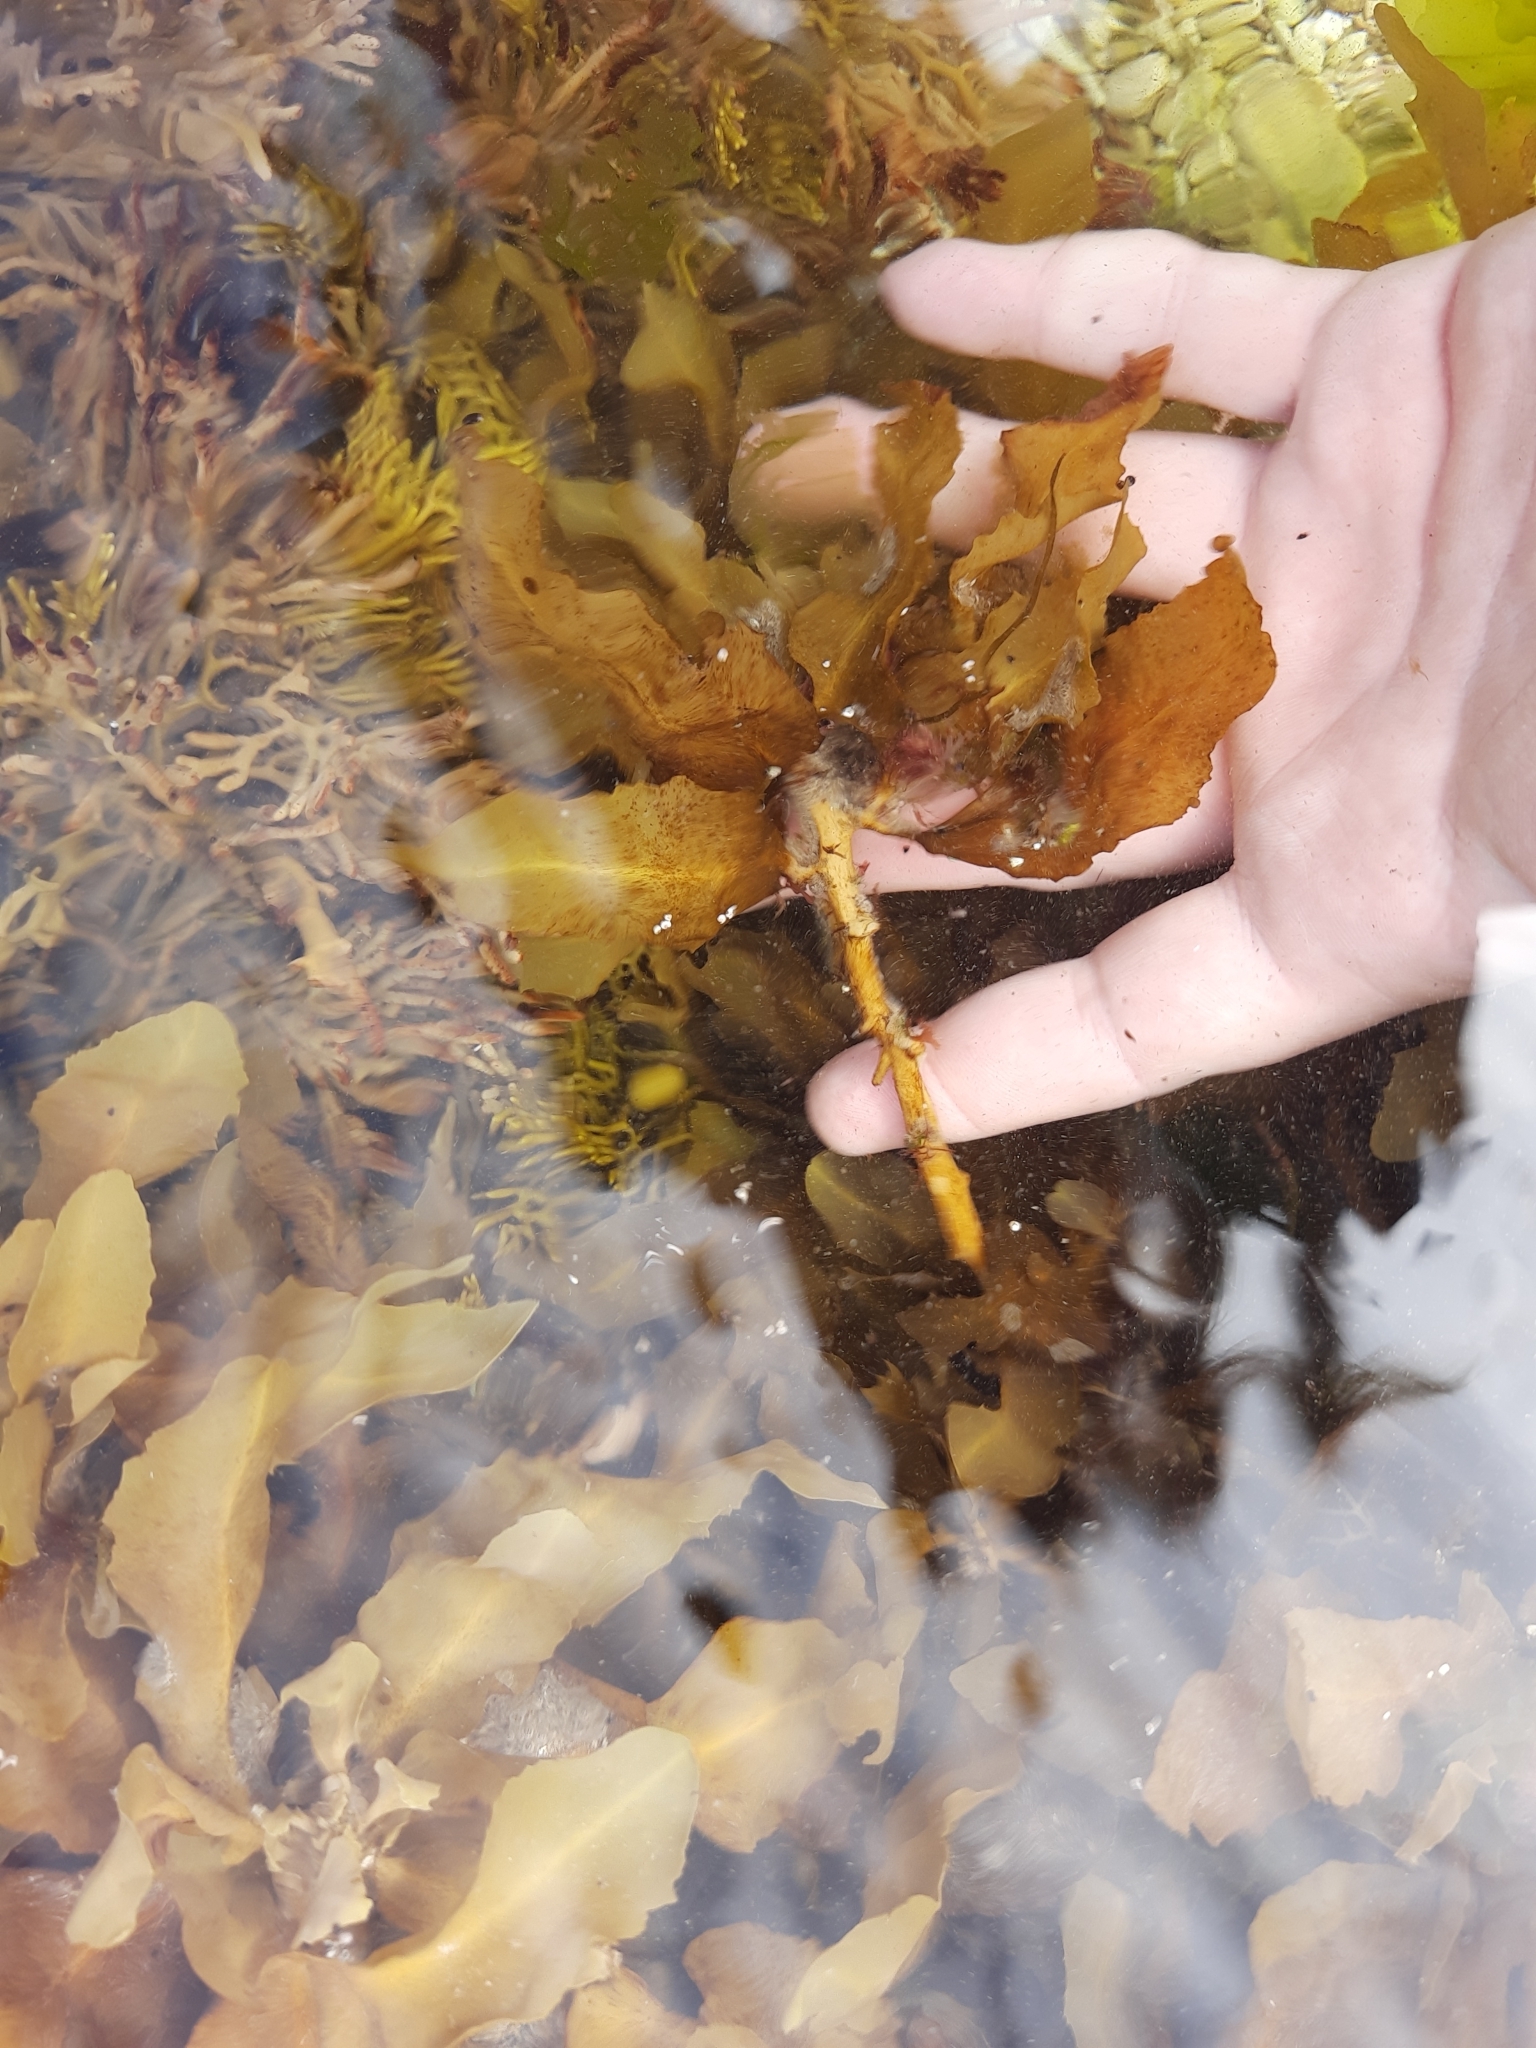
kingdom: Chromista
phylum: Ochrophyta
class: Phaeophyceae
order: Fucales
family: Sargassaceae
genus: Sargassum
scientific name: Sargassum sinclairii
